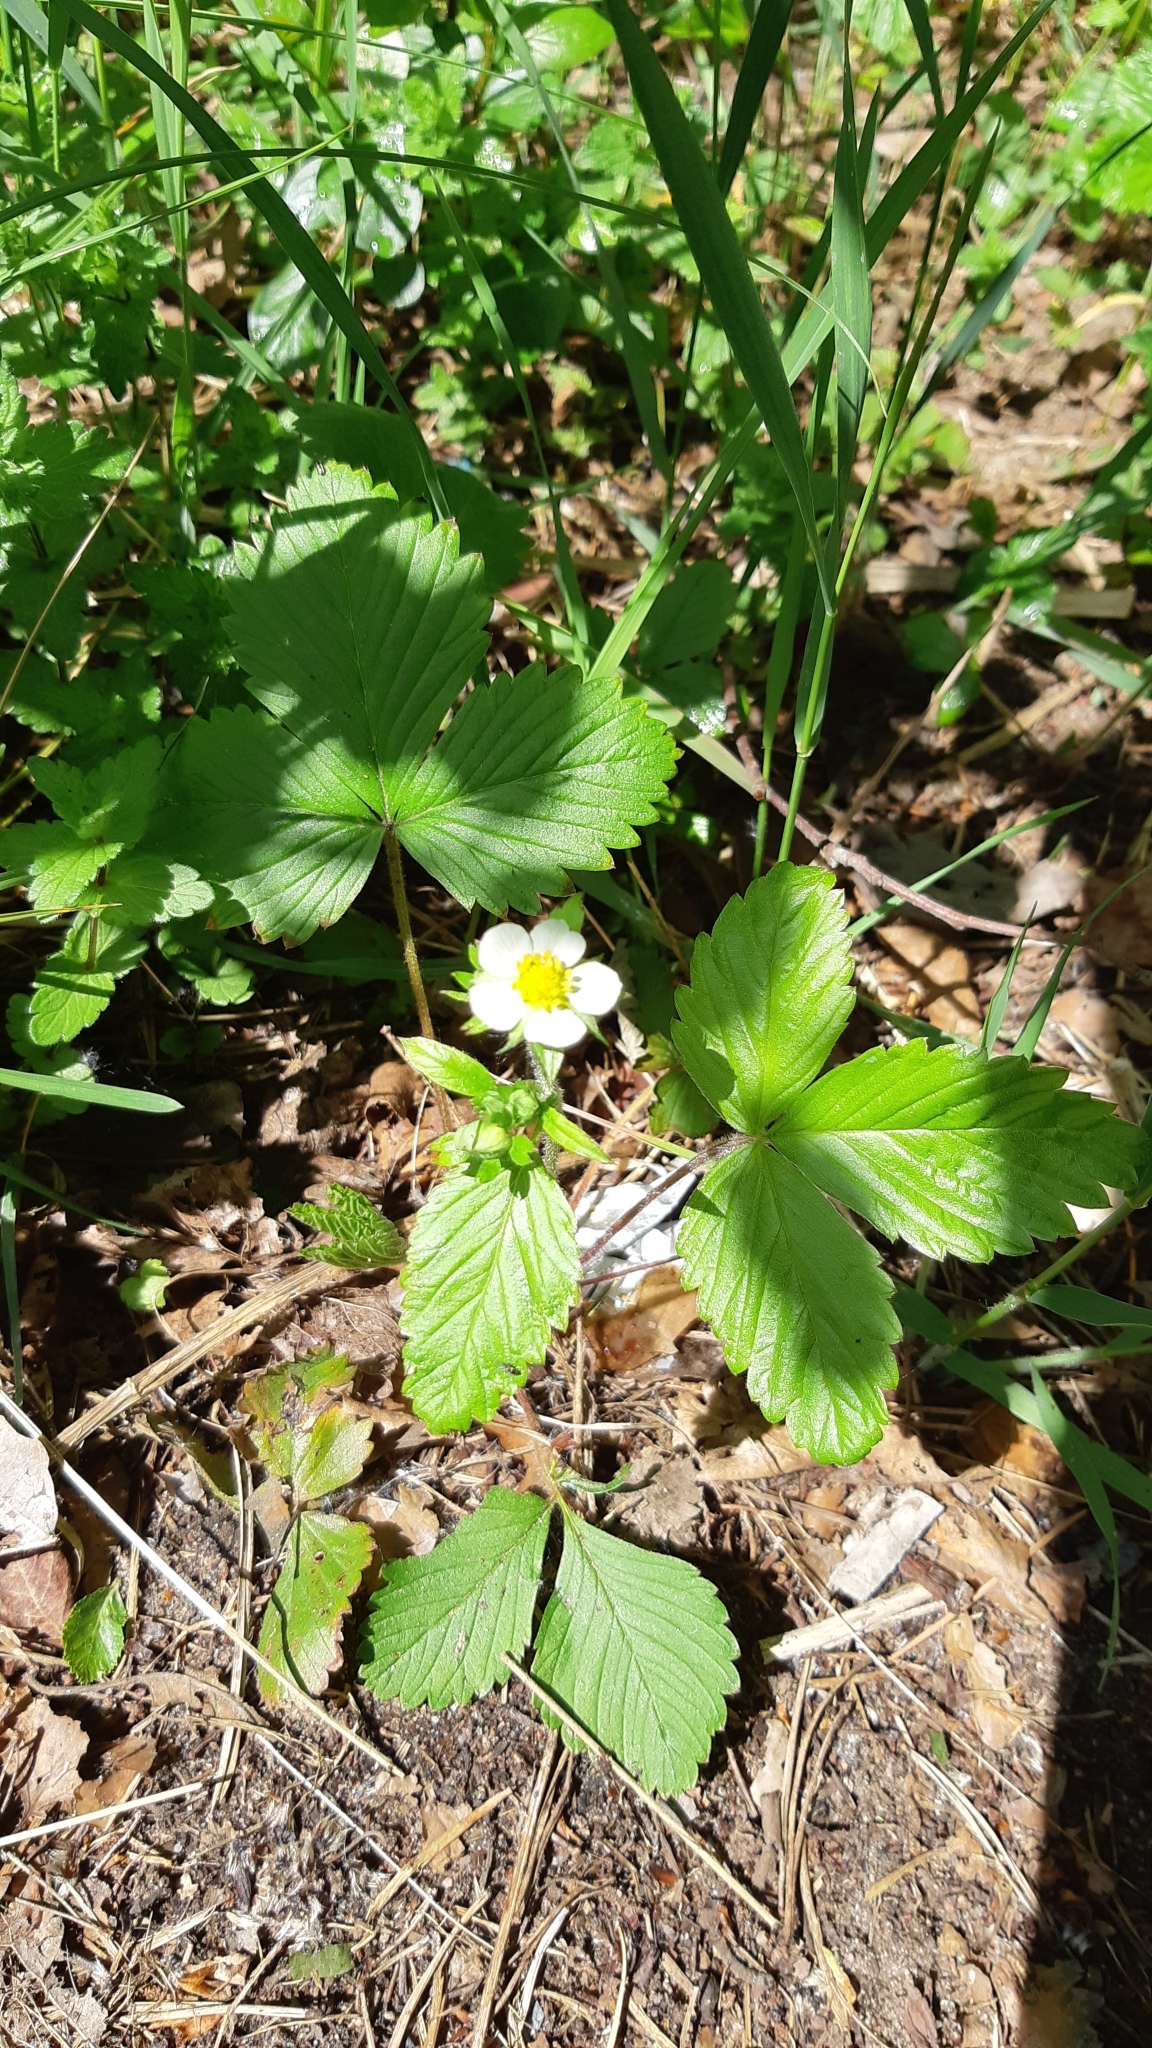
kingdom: Plantae
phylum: Tracheophyta
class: Magnoliopsida
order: Rosales
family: Rosaceae
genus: Fragaria
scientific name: Fragaria vesca
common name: Wild strawberry
